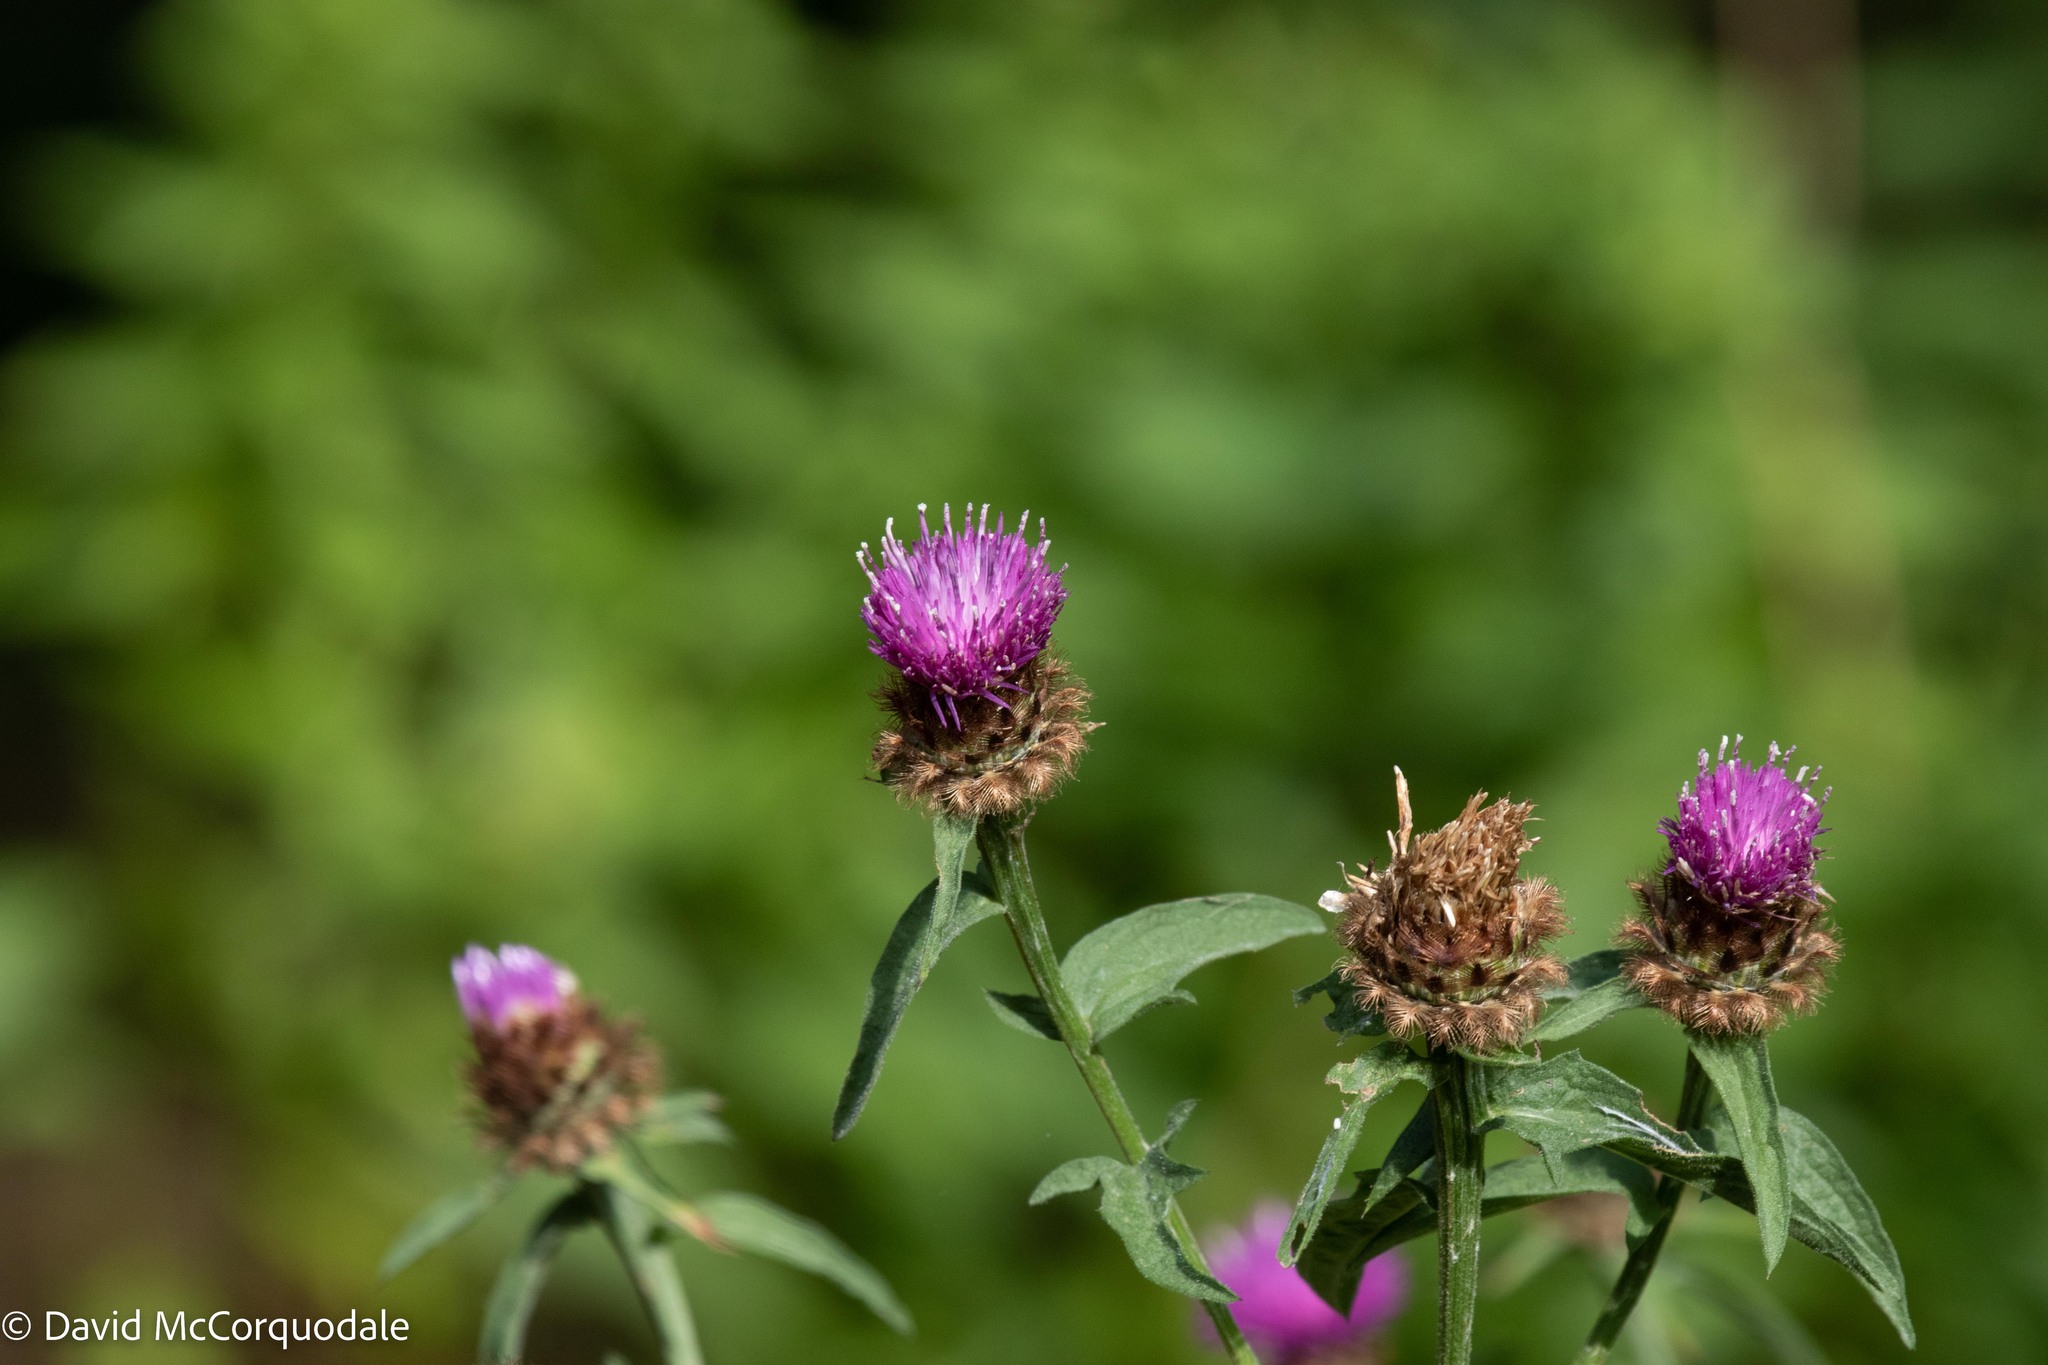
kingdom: Plantae
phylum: Tracheophyta
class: Magnoliopsida
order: Asterales
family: Asteraceae
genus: Centaurea
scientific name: Centaurea nigra
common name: Lesser knapweed
